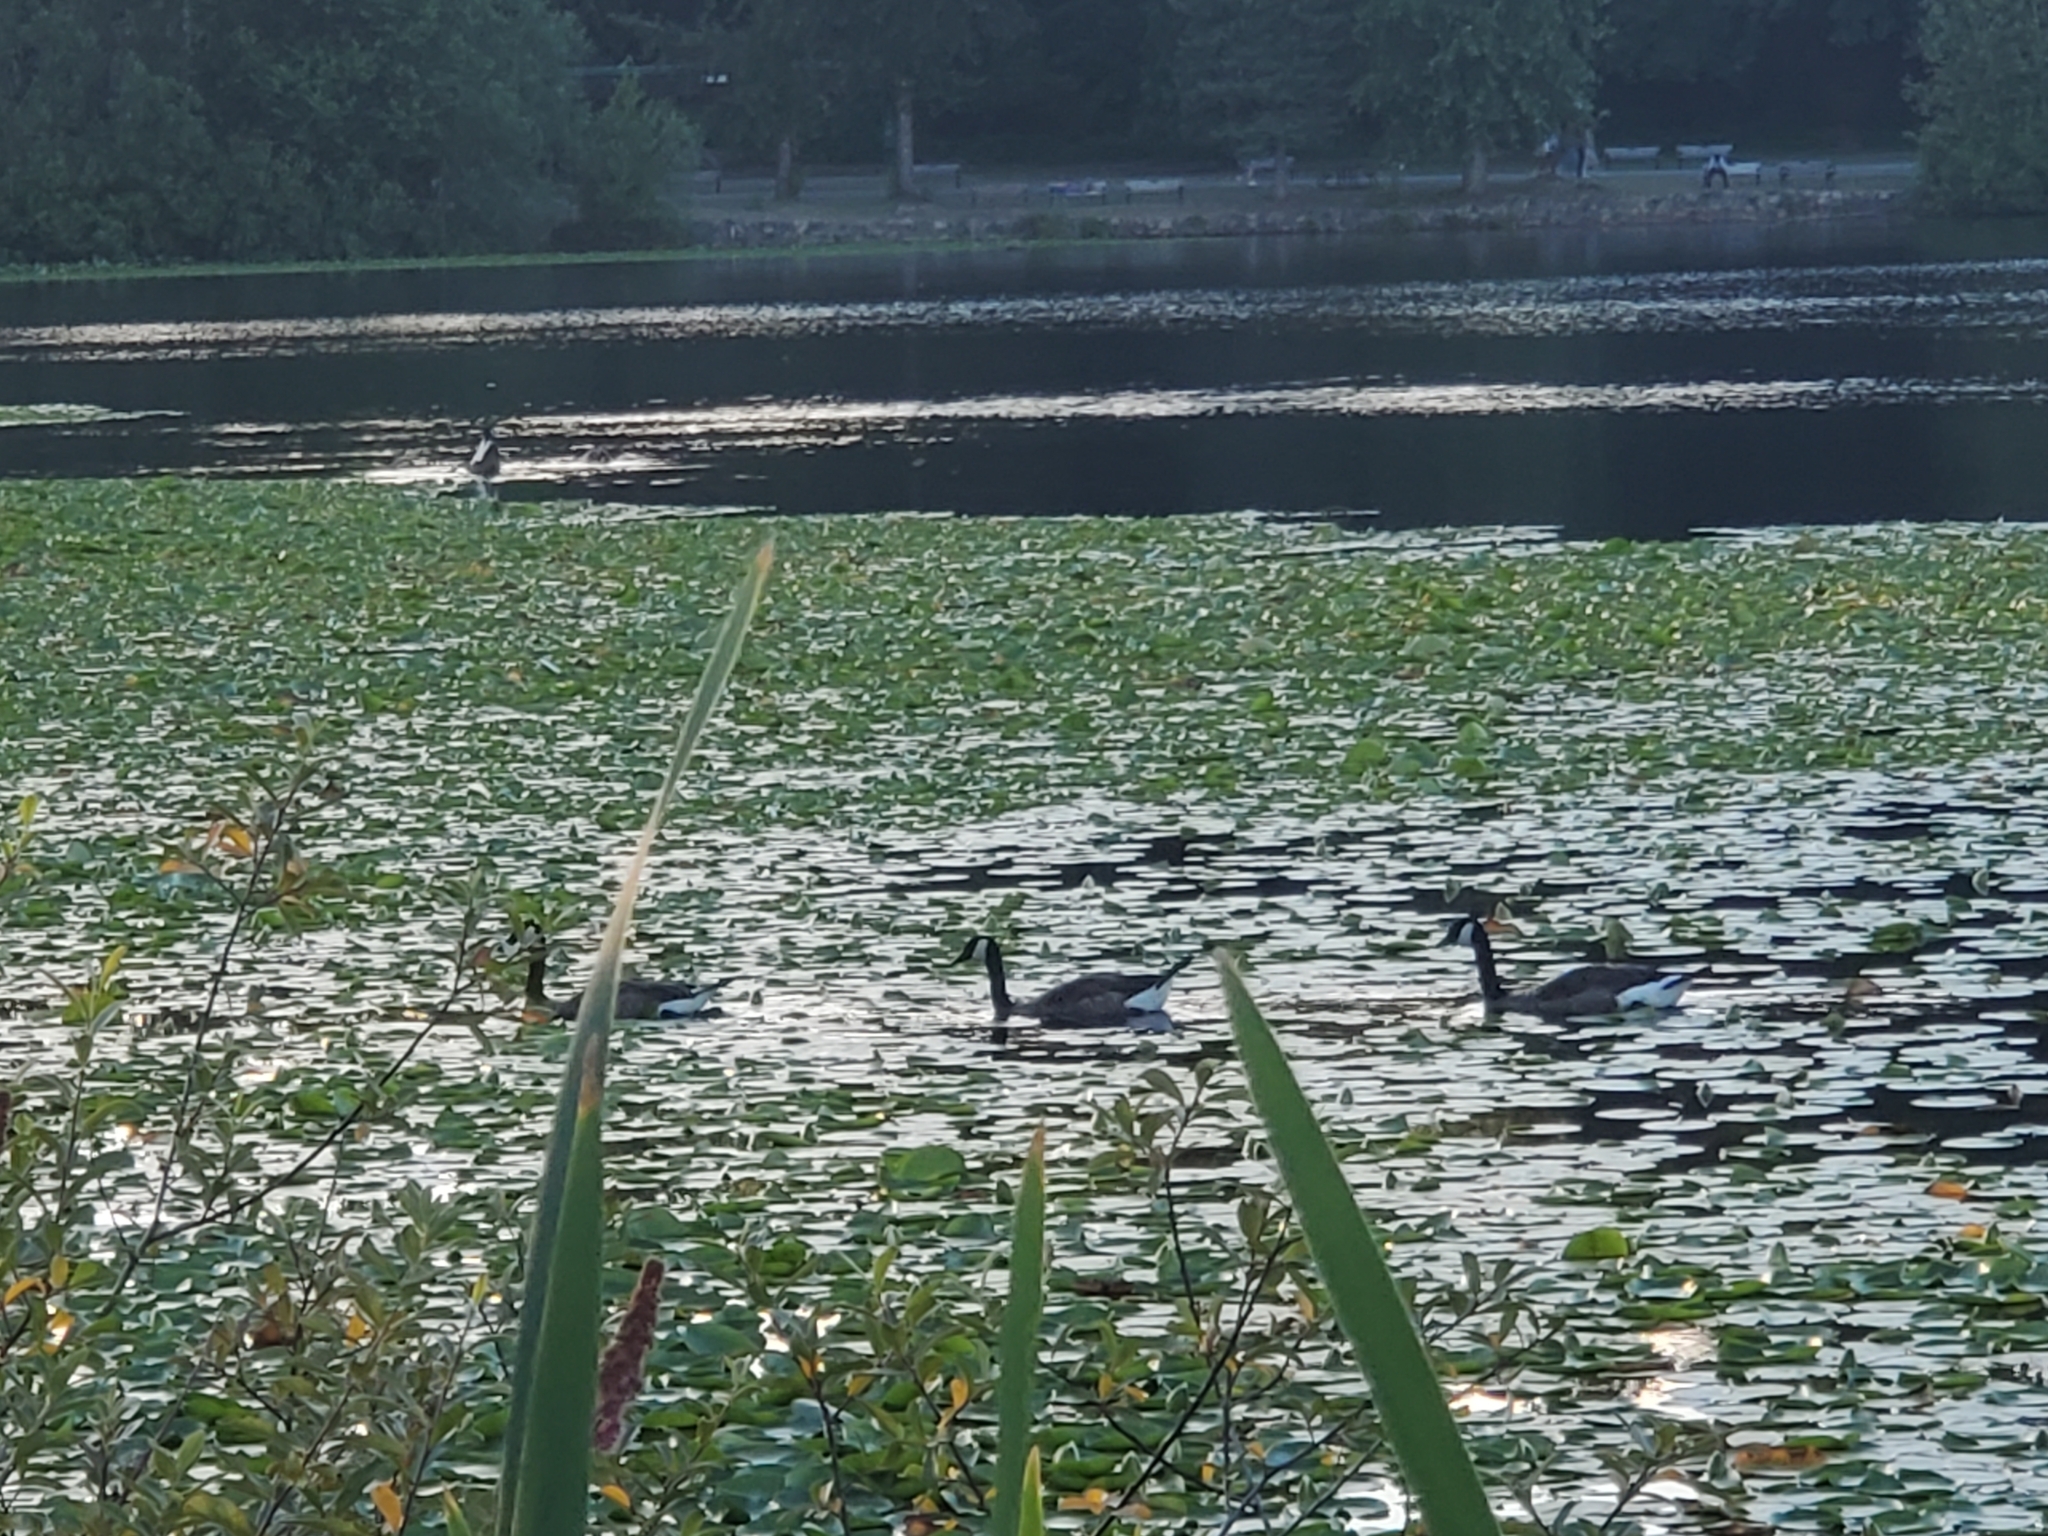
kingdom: Animalia
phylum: Chordata
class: Aves
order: Anseriformes
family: Anatidae
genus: Branta
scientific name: Branta canadensis
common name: Canada goose
